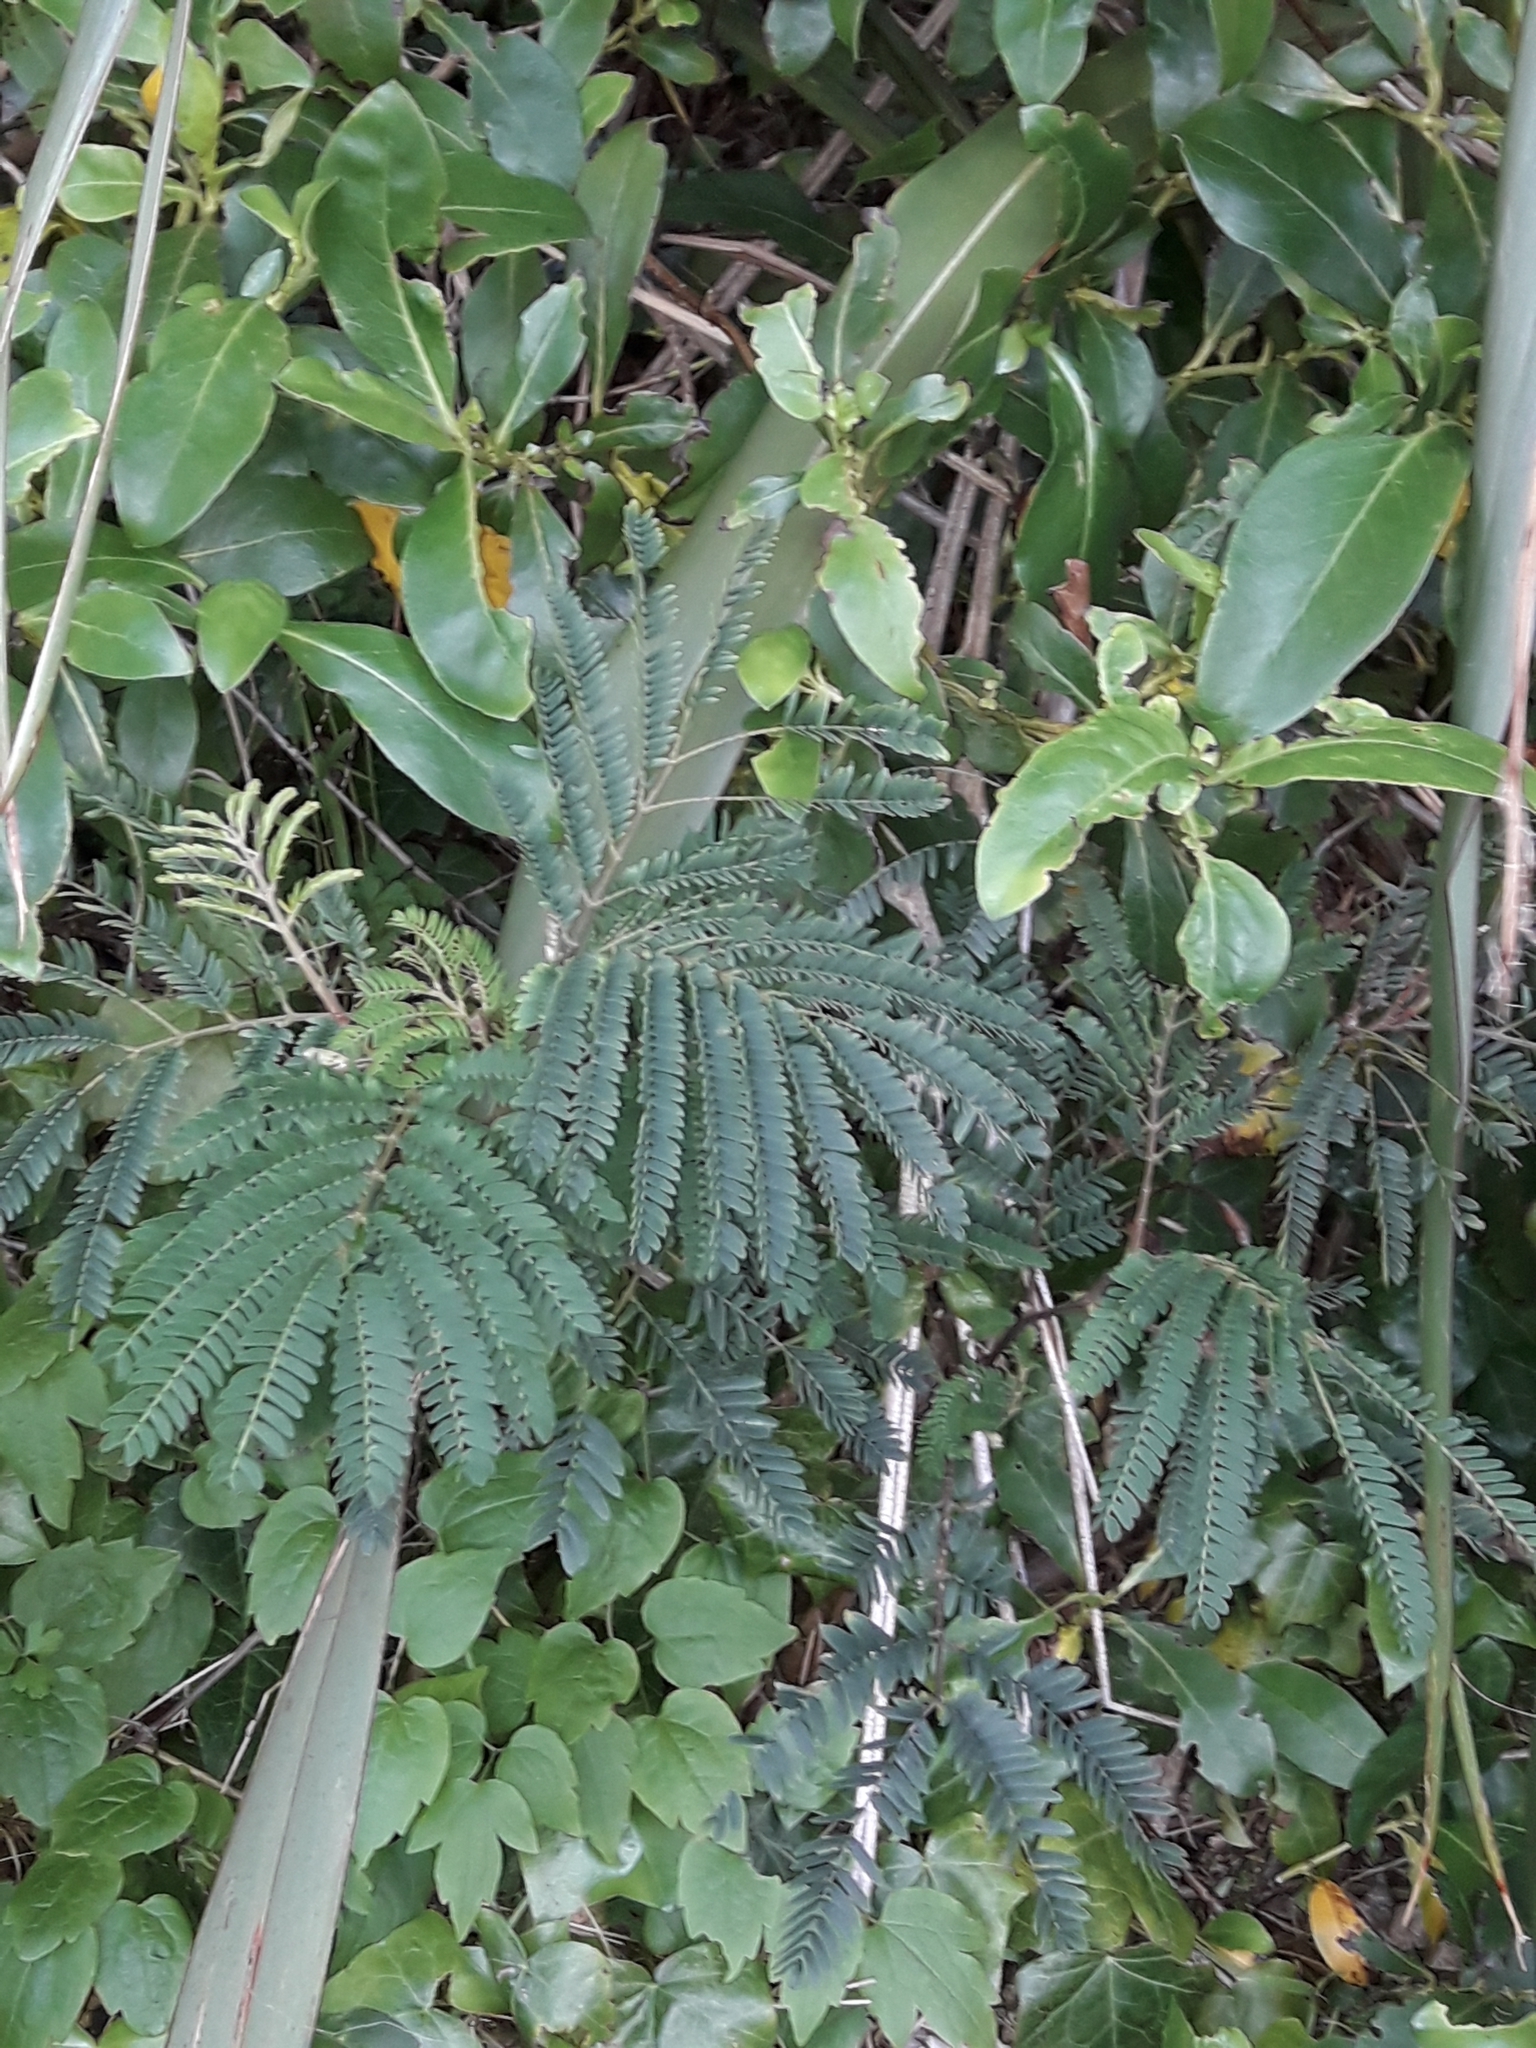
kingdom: Plantae
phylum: Tracheophyta
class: Magnoliopsida
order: Fabales
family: Fabaceae
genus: Paraserianthes
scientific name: Paraserianthes lophantha
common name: Plume albizia
